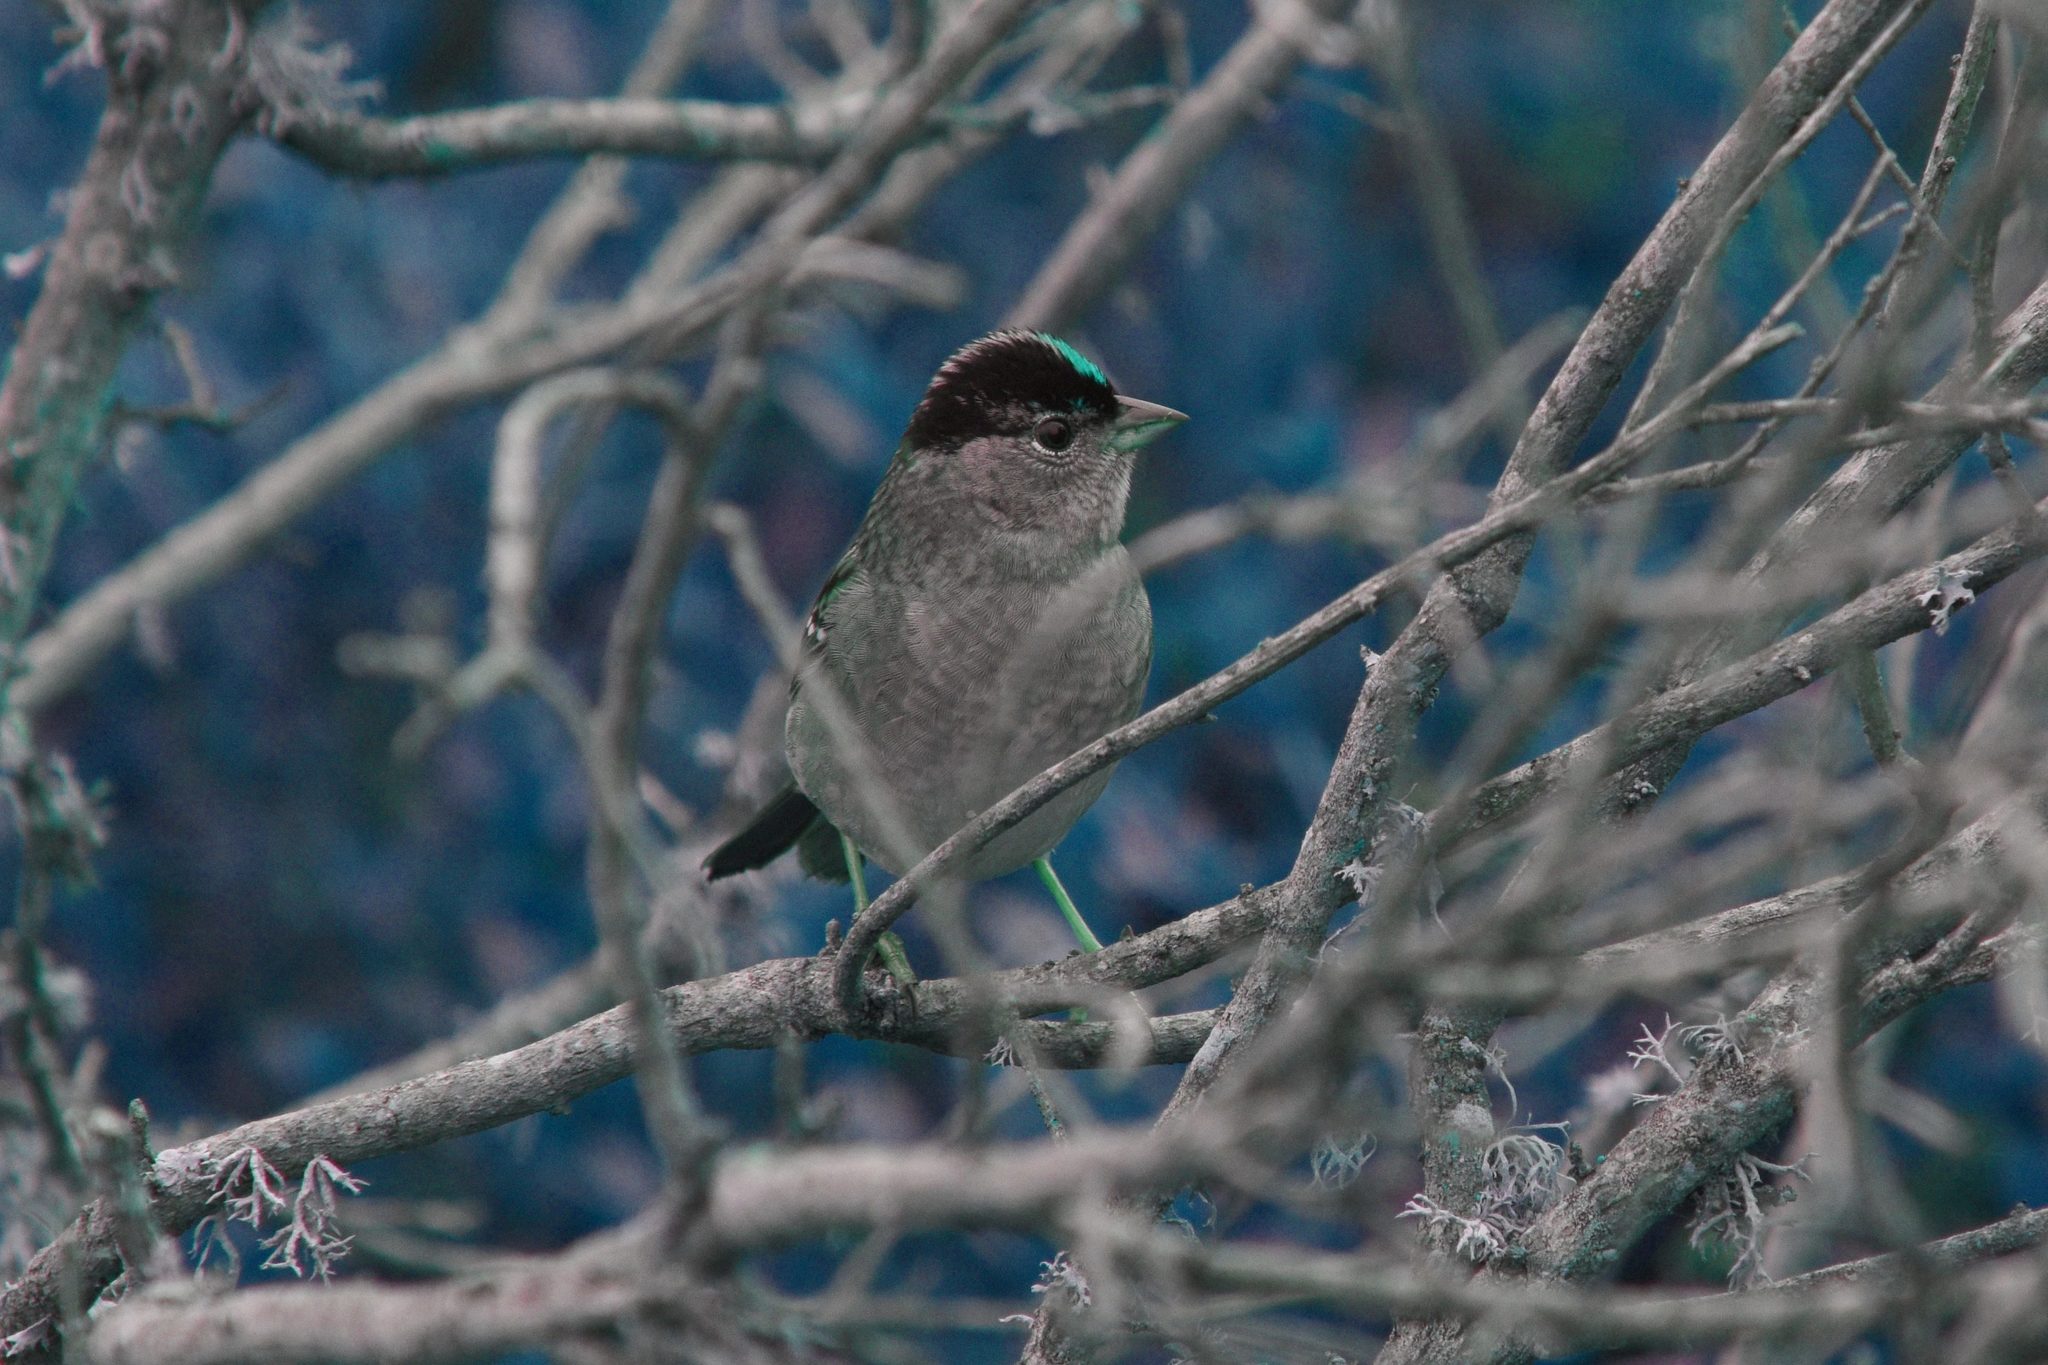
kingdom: Animalia
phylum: Chordata
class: Aves
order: Passeriformes
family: Passerellidae
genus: Zonotrichia
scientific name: Zonotrichia atricapilla
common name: Golden-crowned sparrow
